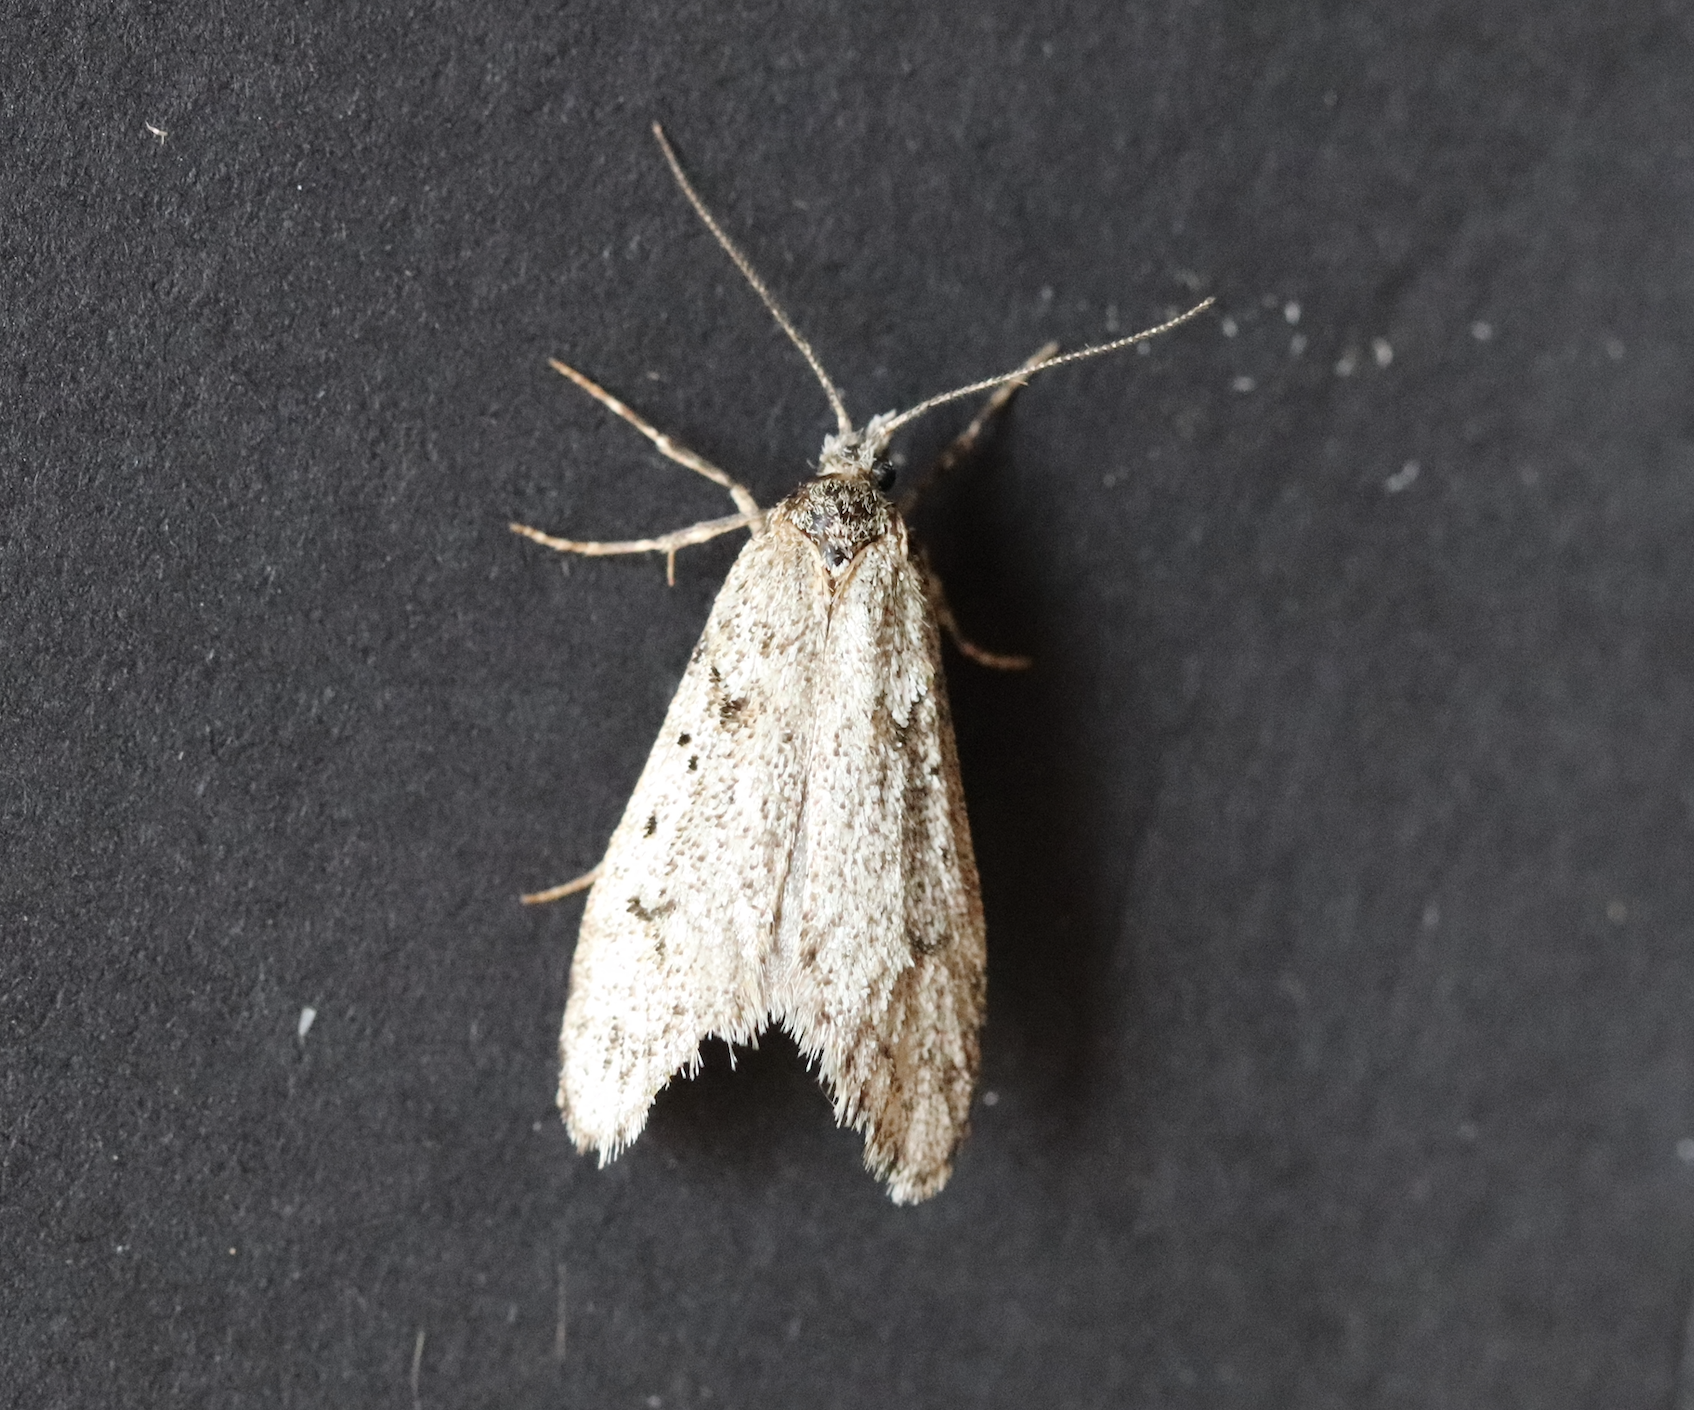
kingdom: Animalia
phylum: Arthropoda
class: Insecta
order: Lepidoptera
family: Lypusidae
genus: Diurnea
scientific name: Diurnea fagella
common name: March tubic
